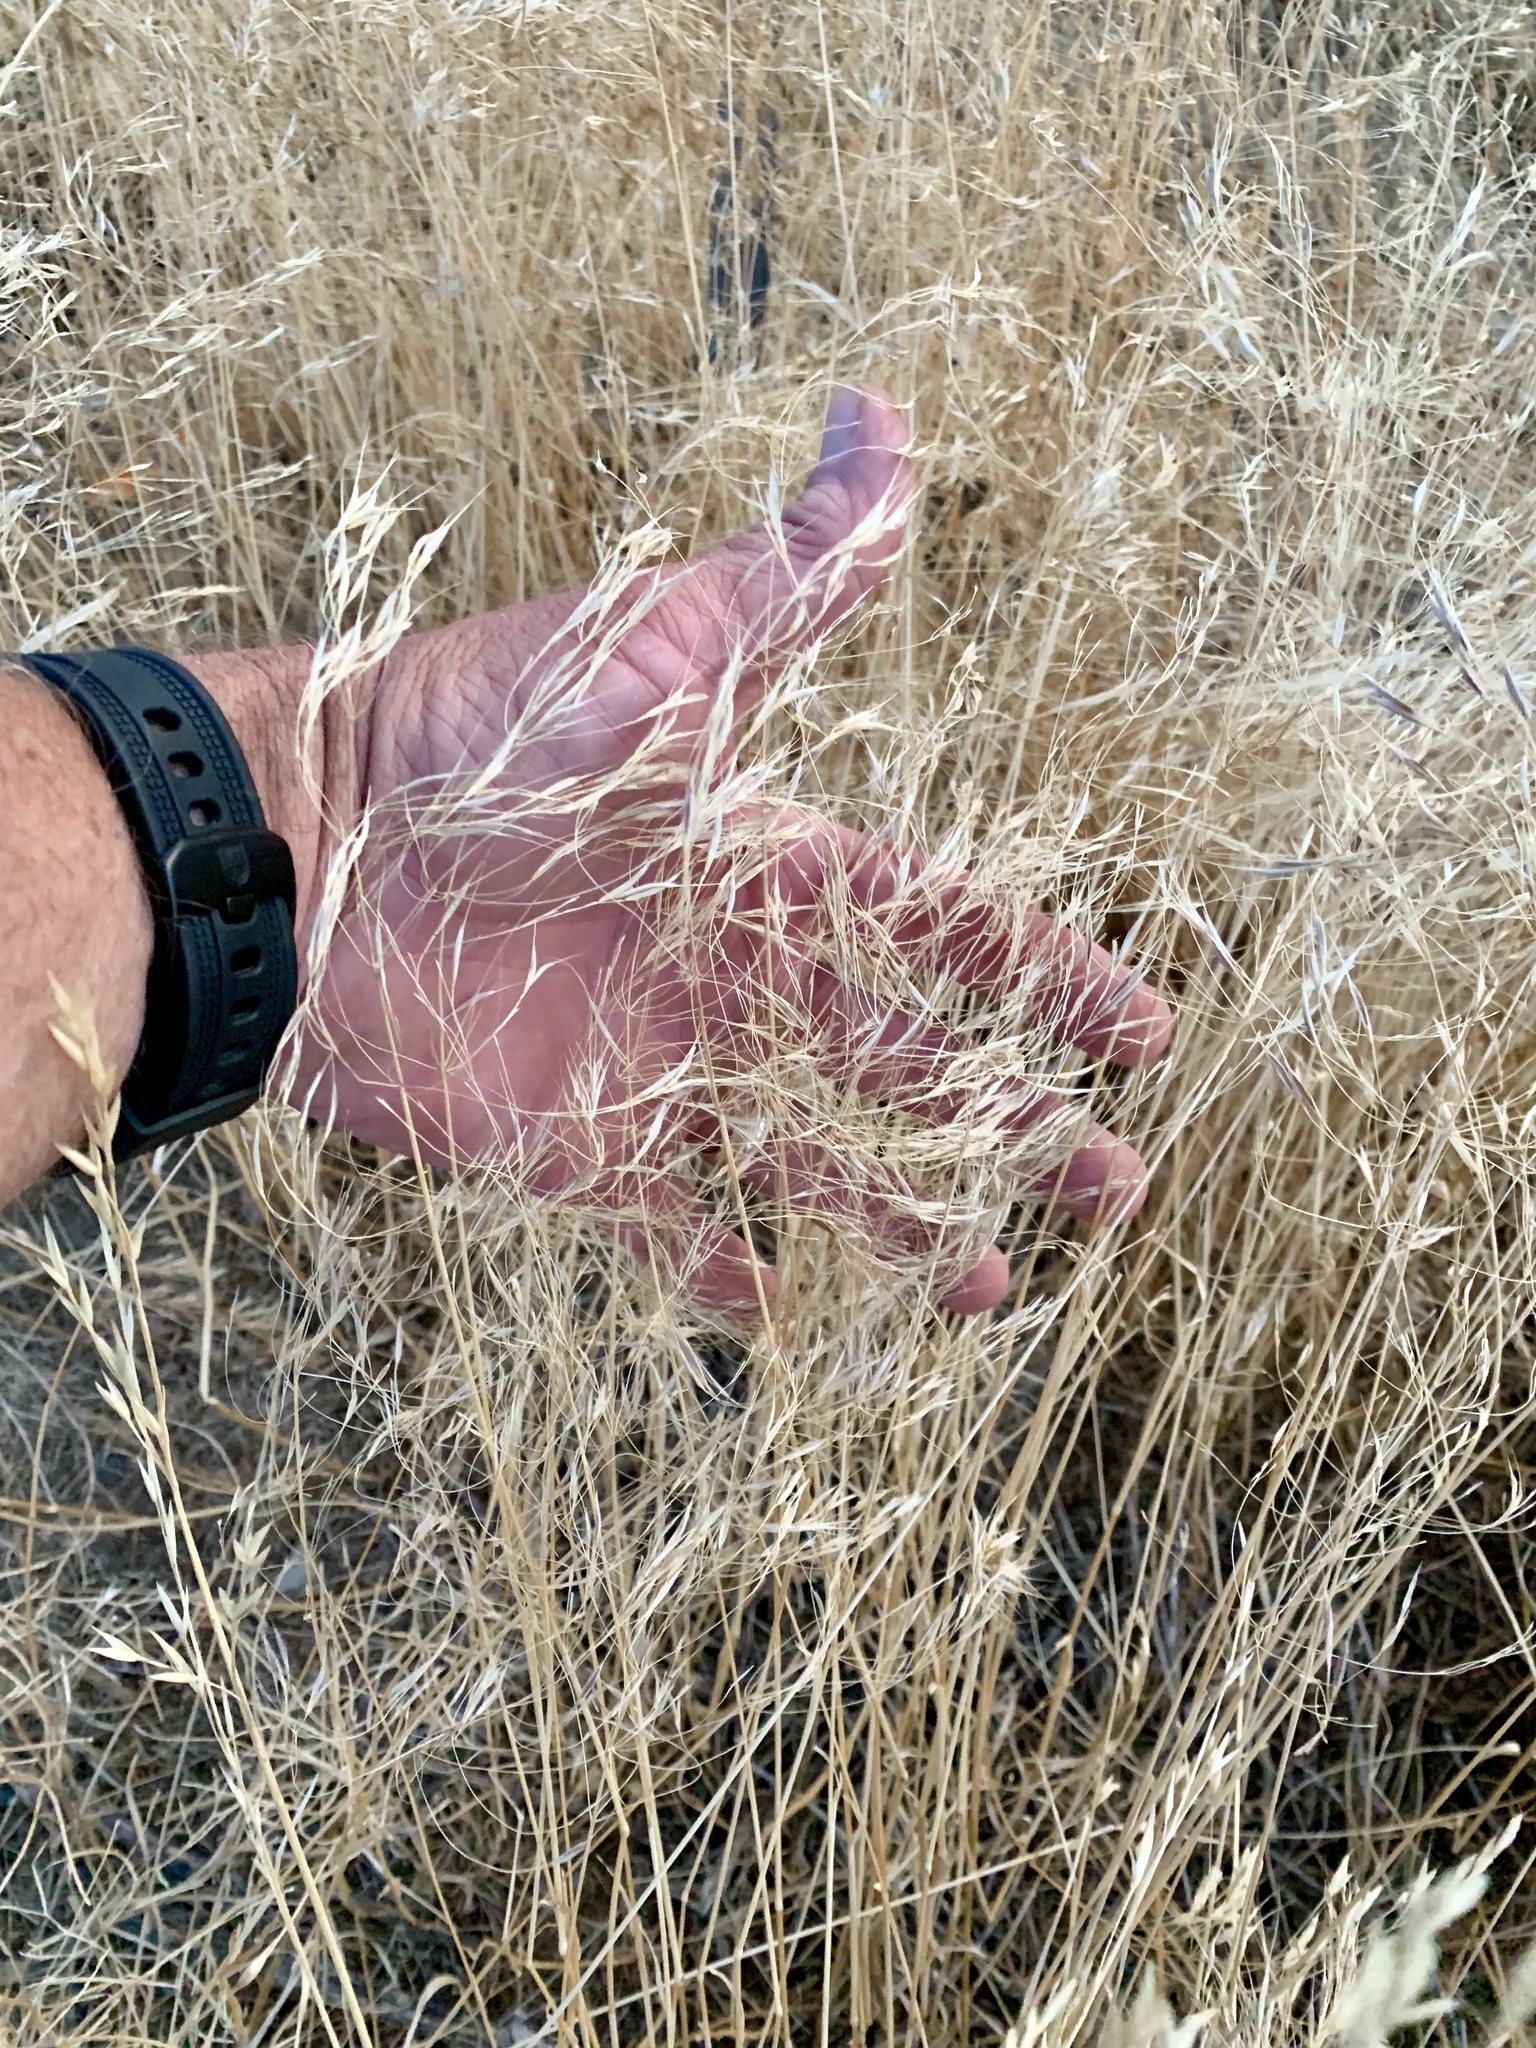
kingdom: Plantae
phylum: Tracheophyta
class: Liliopsida
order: Poales
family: Poaceae
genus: Bromus
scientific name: Bromus tectorum
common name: Cheatgrass
